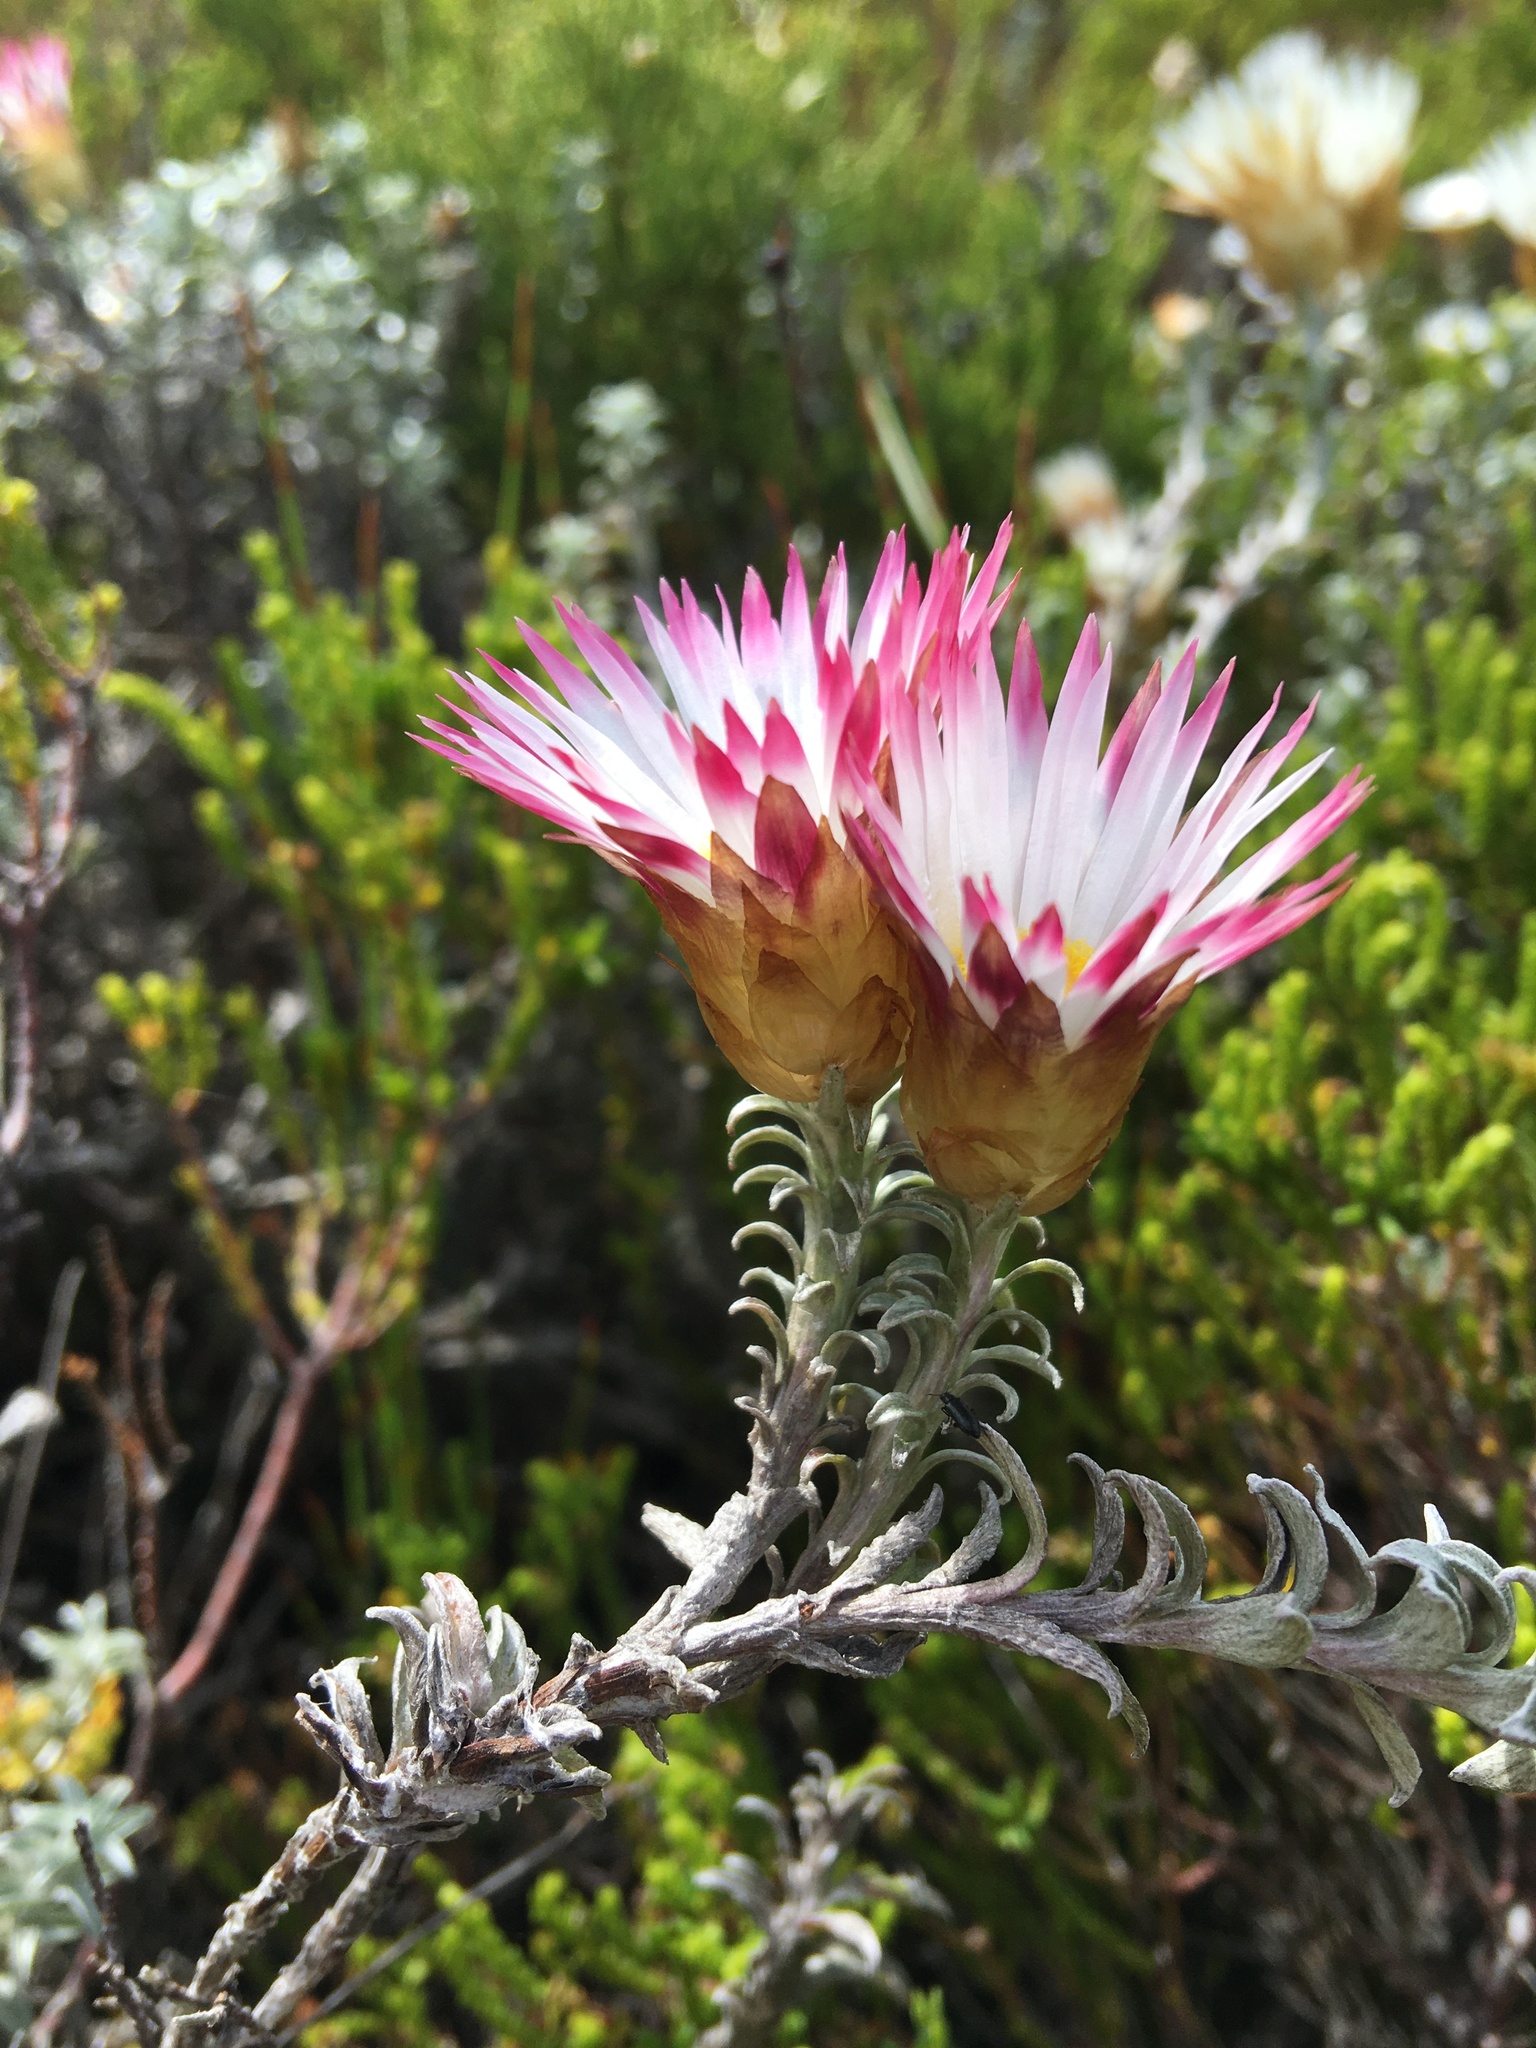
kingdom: Plantae
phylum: Tracheophyta
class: Magnoliopsida
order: Asterales
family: Asteraceae
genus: Helichrysum
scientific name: Helichrysum retortum
